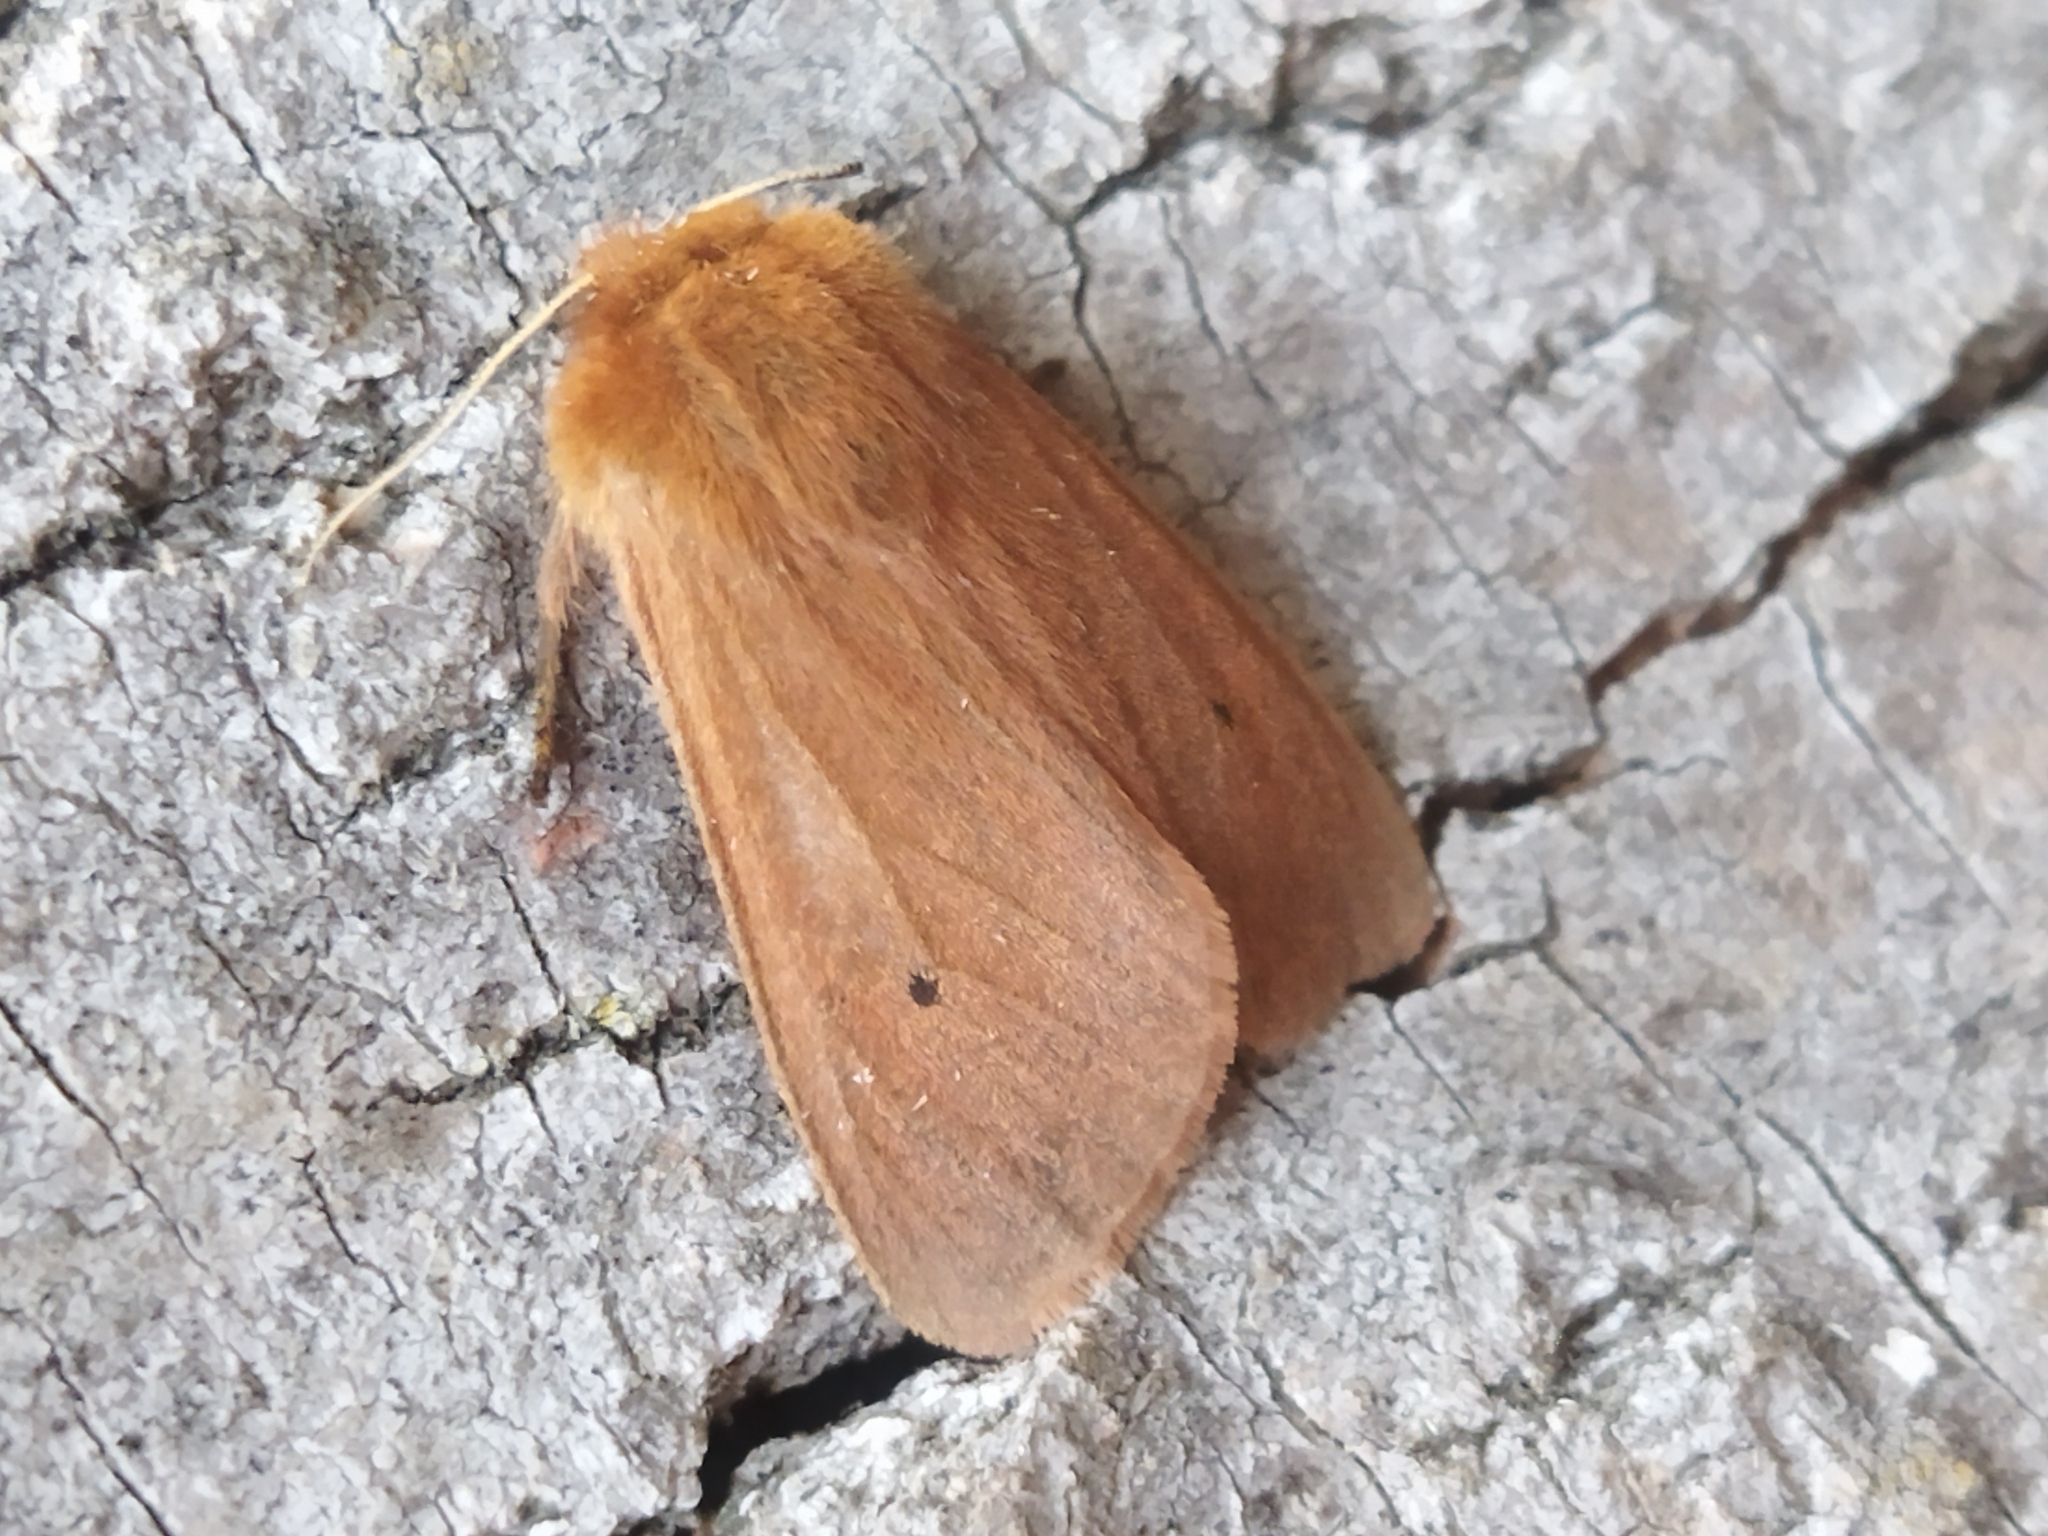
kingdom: Animalia
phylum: Arthropoda
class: Insecta
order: Lepidoptera
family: Erebidae
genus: Phragmatobia
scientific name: Phragmatobia fuliginosa
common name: Ruby tiger
